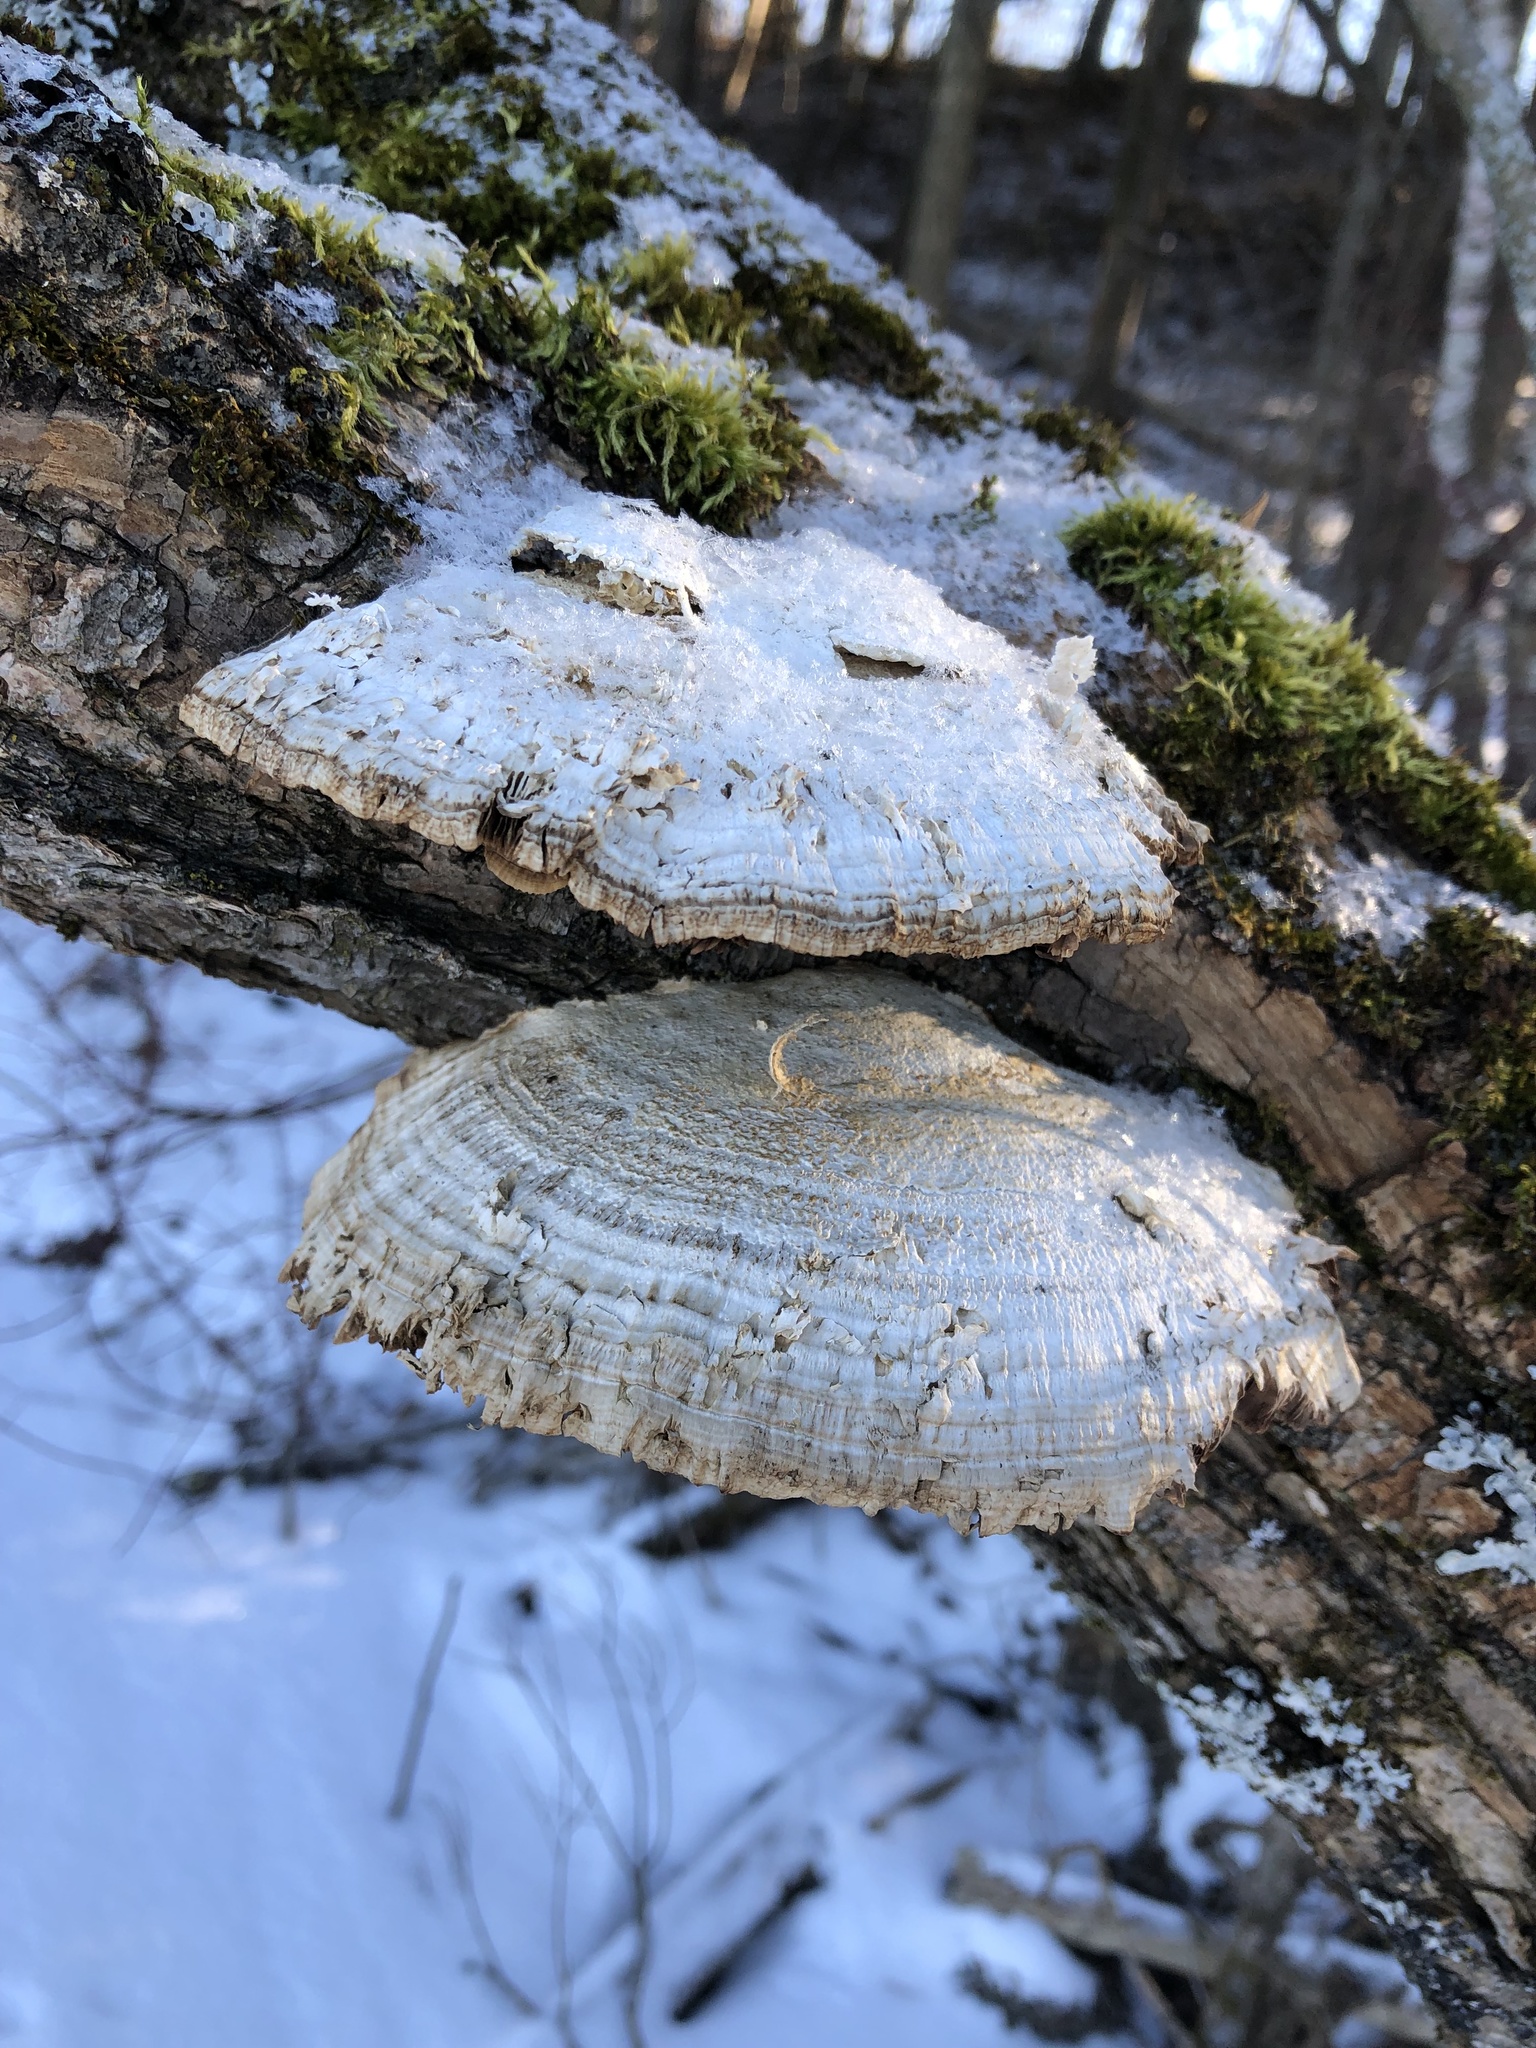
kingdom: Fungi
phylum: Basidiomycota
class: Agaricomycetes
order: Polyporales
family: Polyporaceae
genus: Daedaleopsis
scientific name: Daedaleopsis confragosa
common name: Blushing bracket
